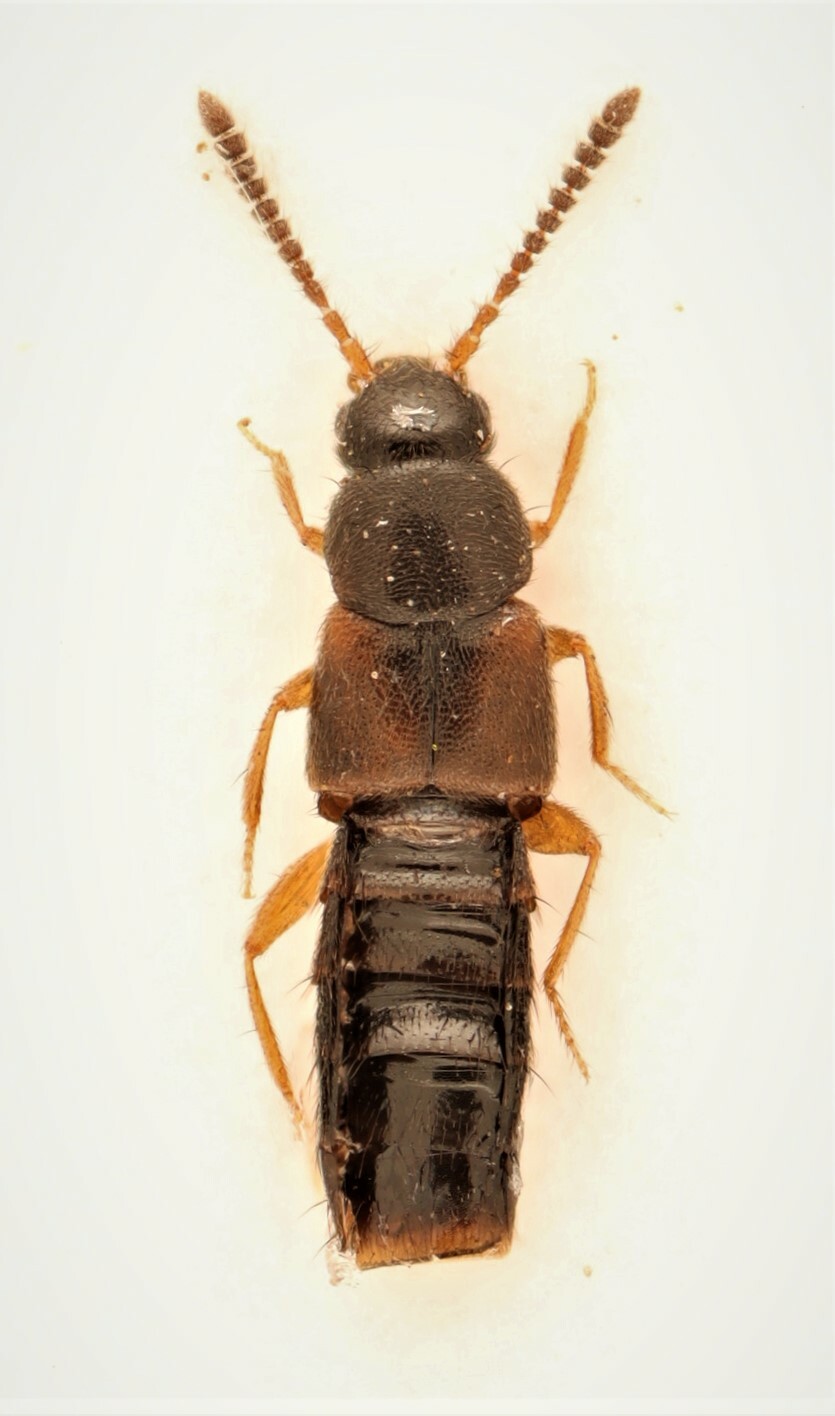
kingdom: Animalia
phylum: Arthropoda
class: Insecta
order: Coleoptera
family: Staphylinidae
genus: Atheta
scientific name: Atheta chartersensis
